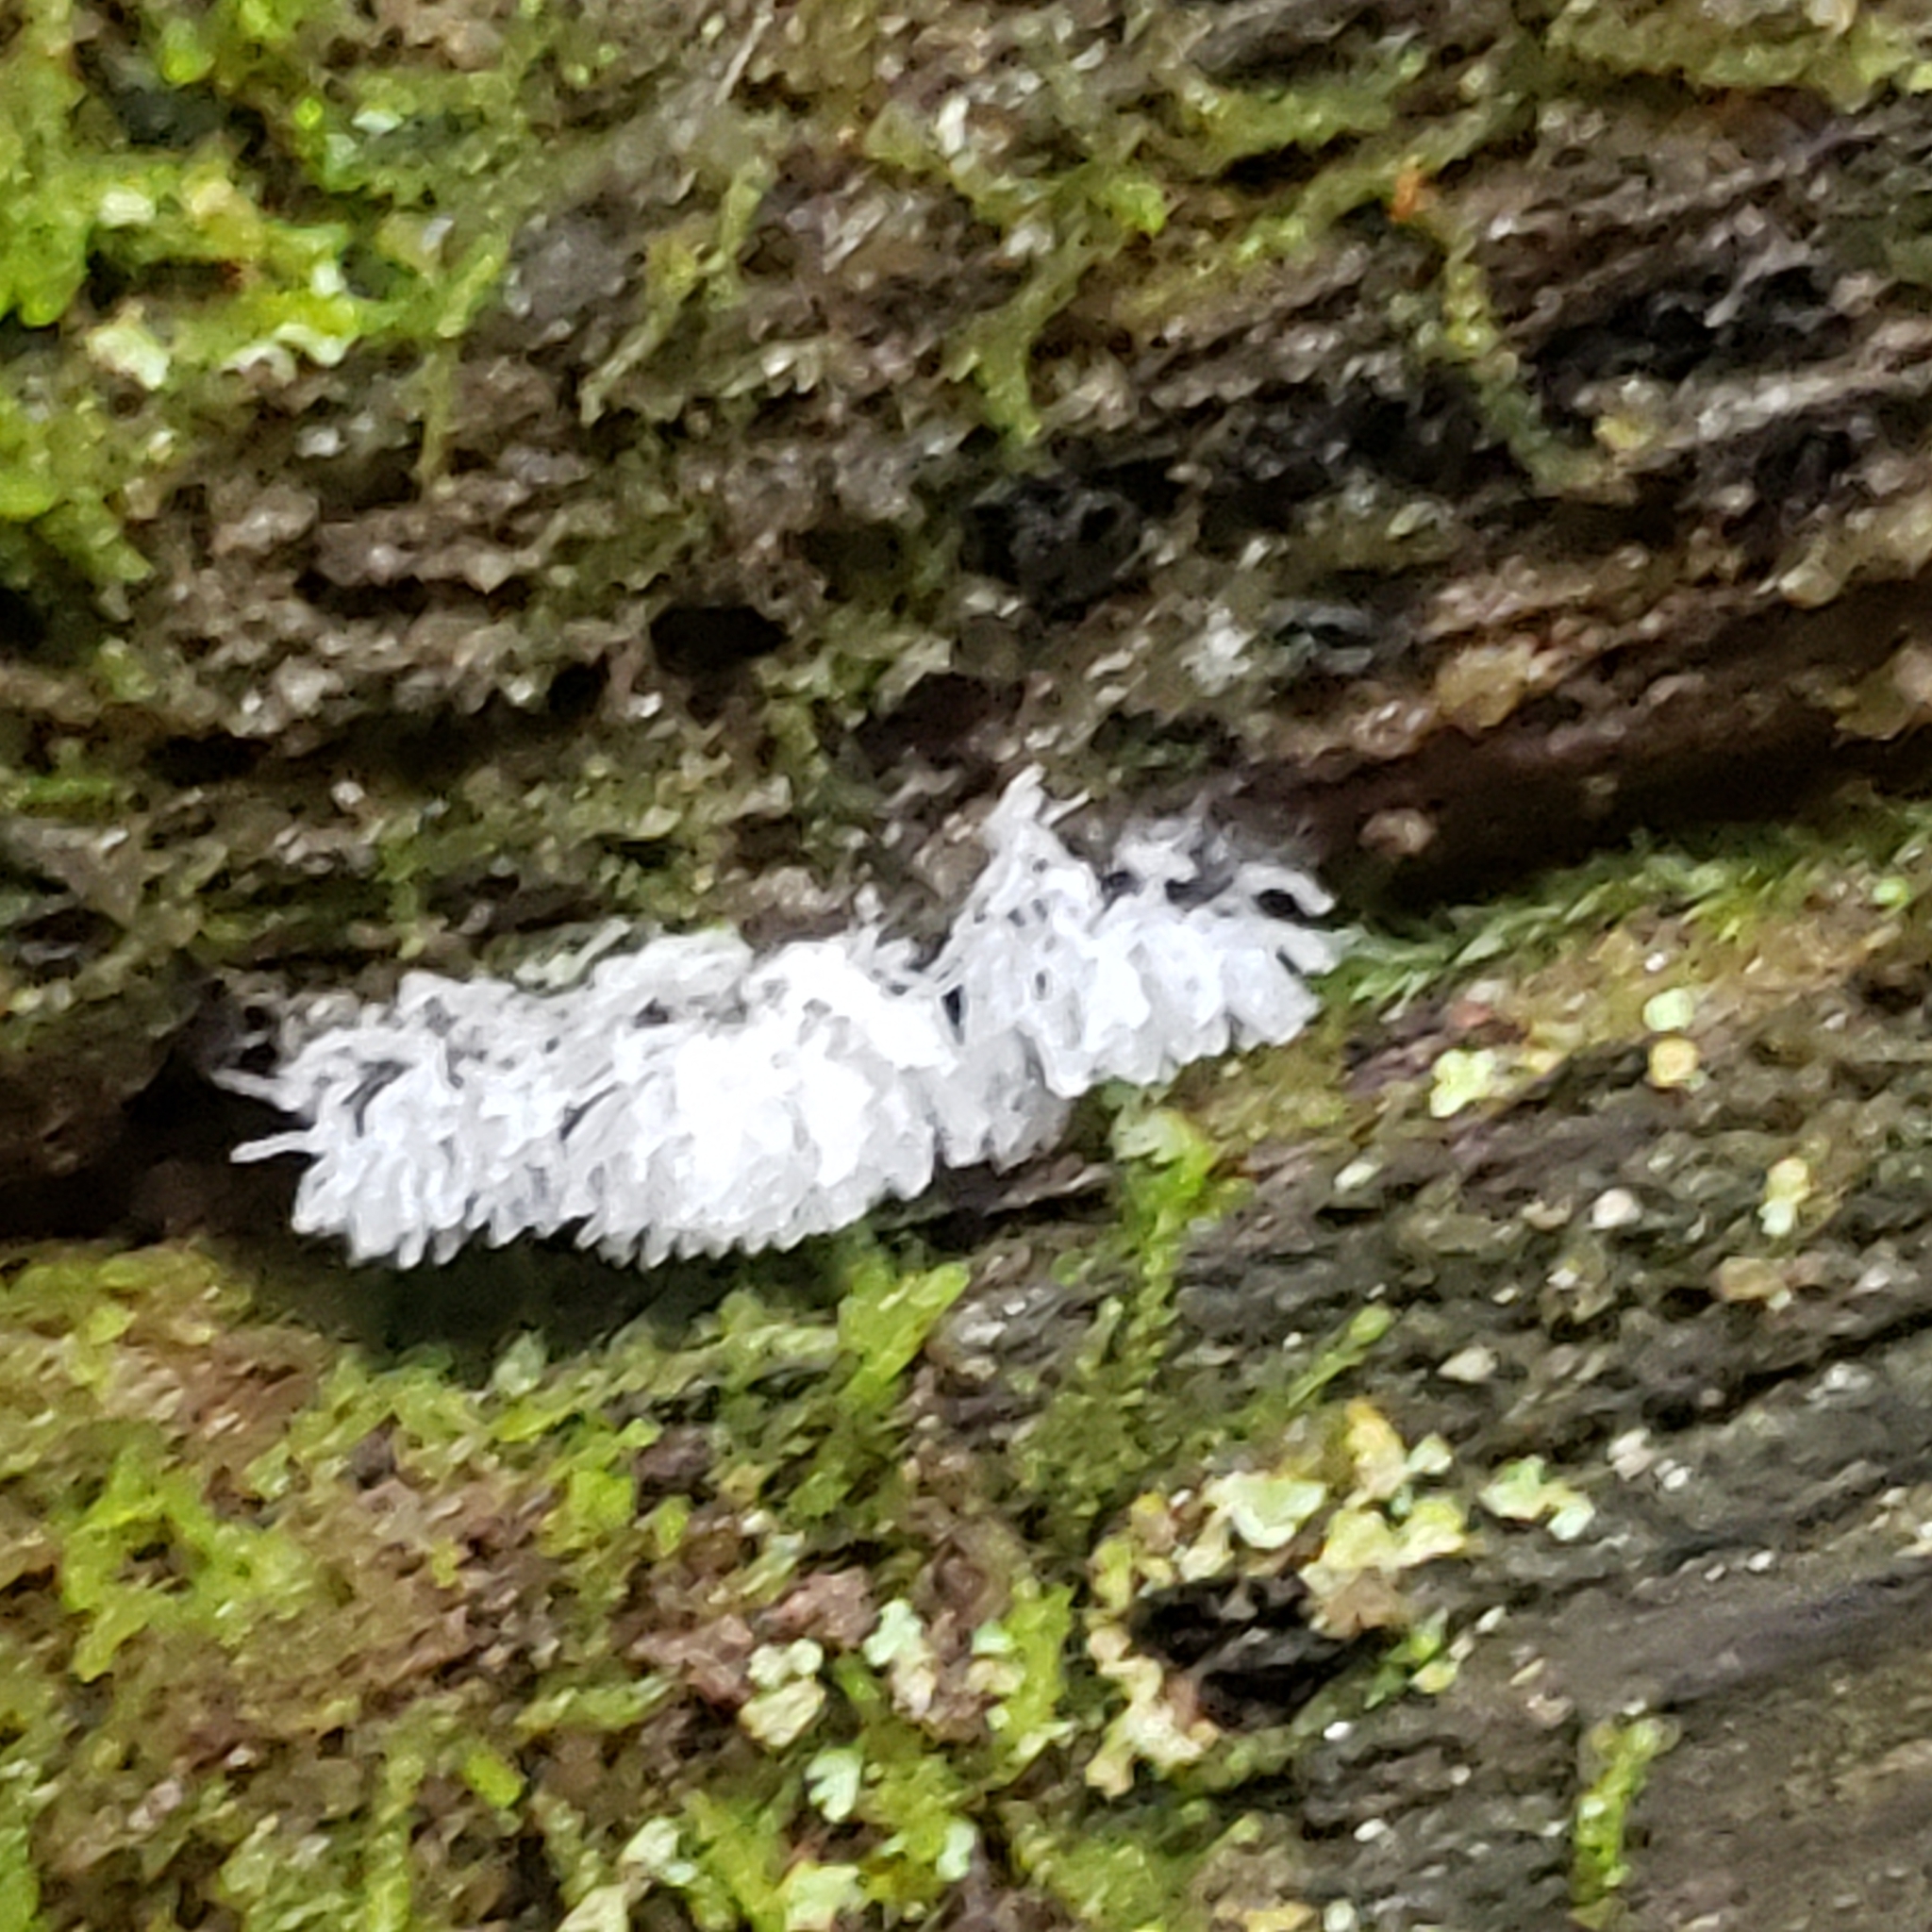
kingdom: Protozoa
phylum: Mycetozoa
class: Protosteliomycetes
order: Ceratiomyxales
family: Ceratiomyxaceae
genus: Ceratiomyxa
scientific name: Ceratiomyxa fruticulosa
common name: Honeycomb coral slime mold
